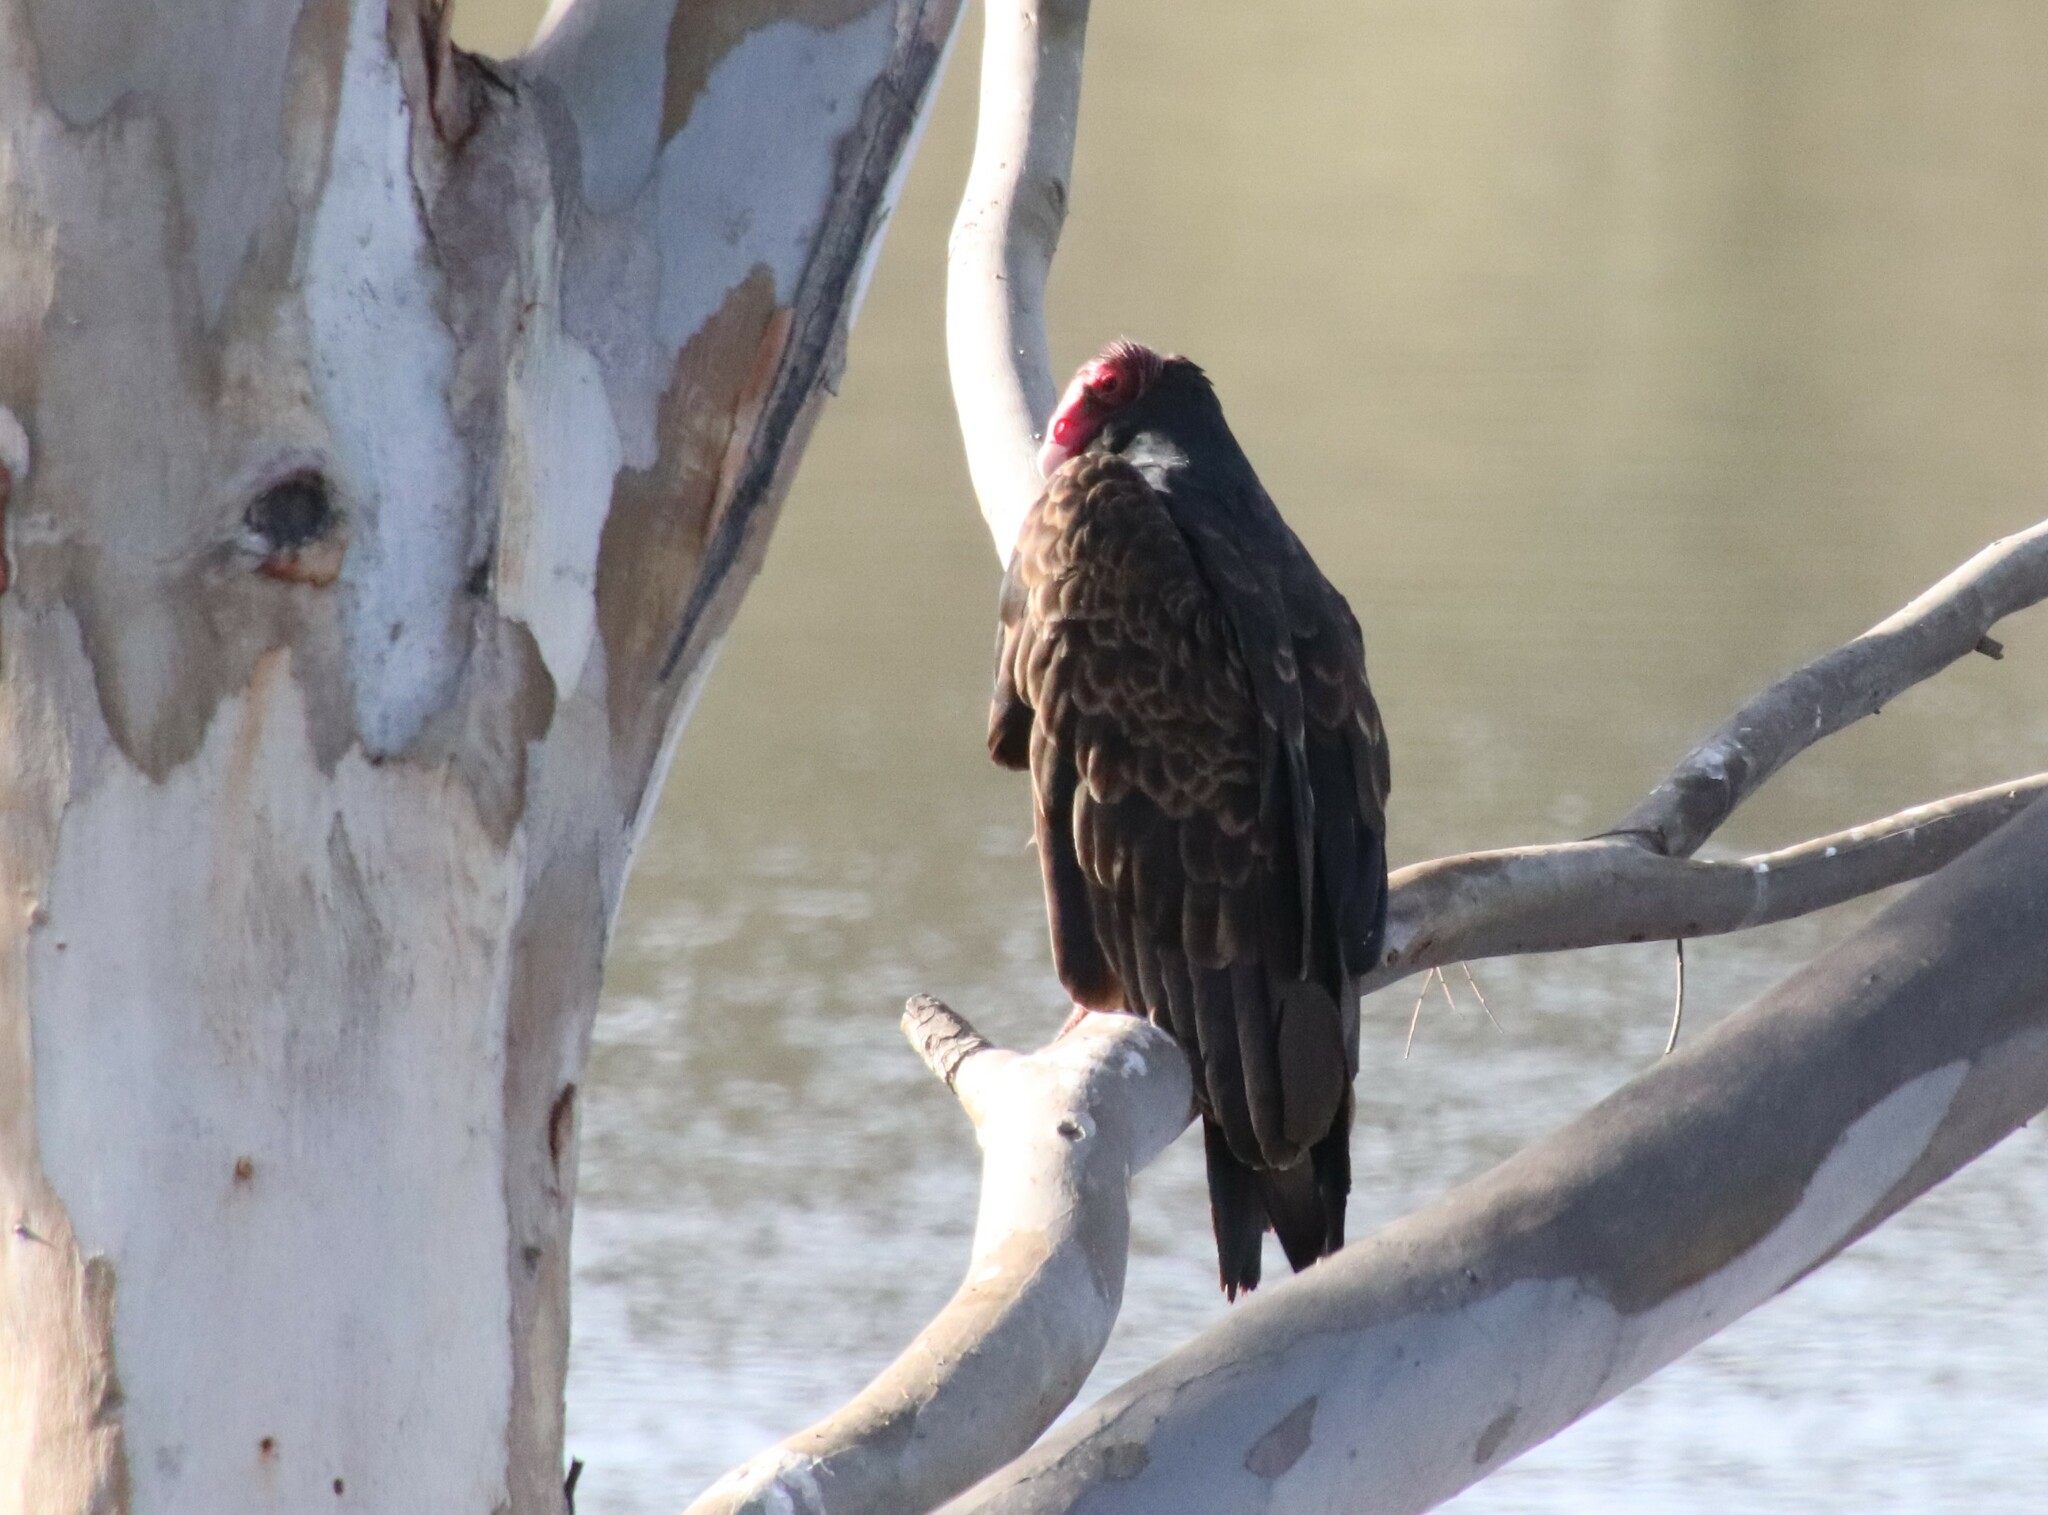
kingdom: Animalia
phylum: Chordata
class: Aves
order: Accipitriformes
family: Cathartidae
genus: Cathartes
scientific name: Cathartes aura
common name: Turkey vulture
